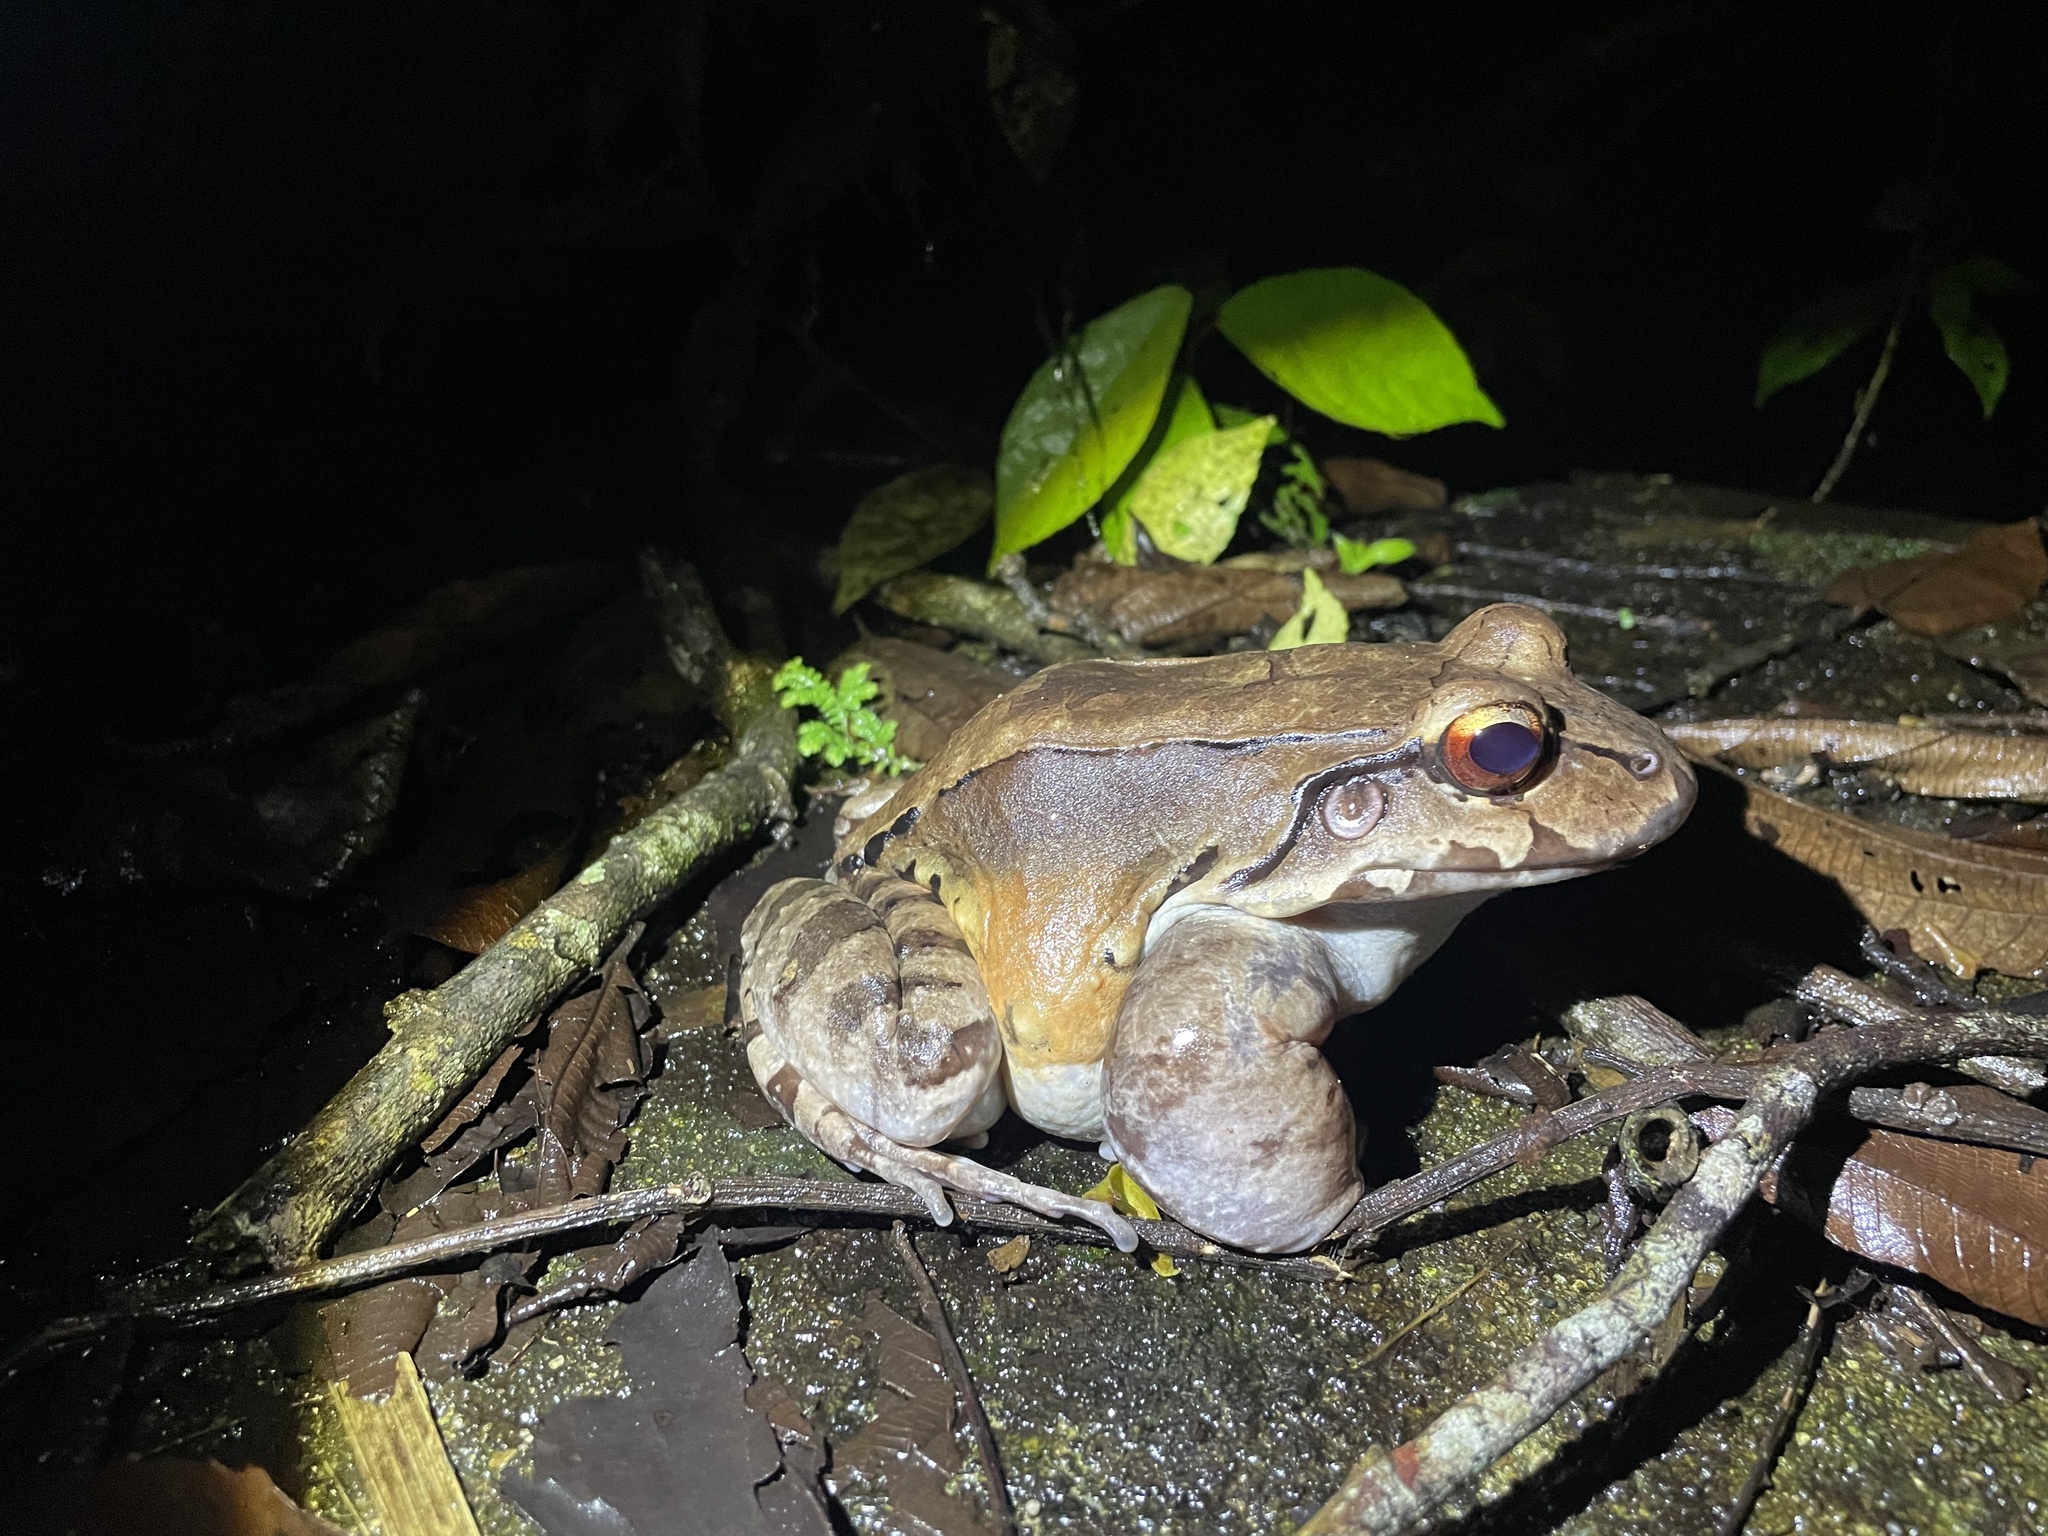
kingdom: Animalia
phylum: Chordata
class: Amphibia
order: Anura
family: Leptodactylidae
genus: Leptodactylus
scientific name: Leptodactylus savagei
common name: Savage's thin-toed frog
